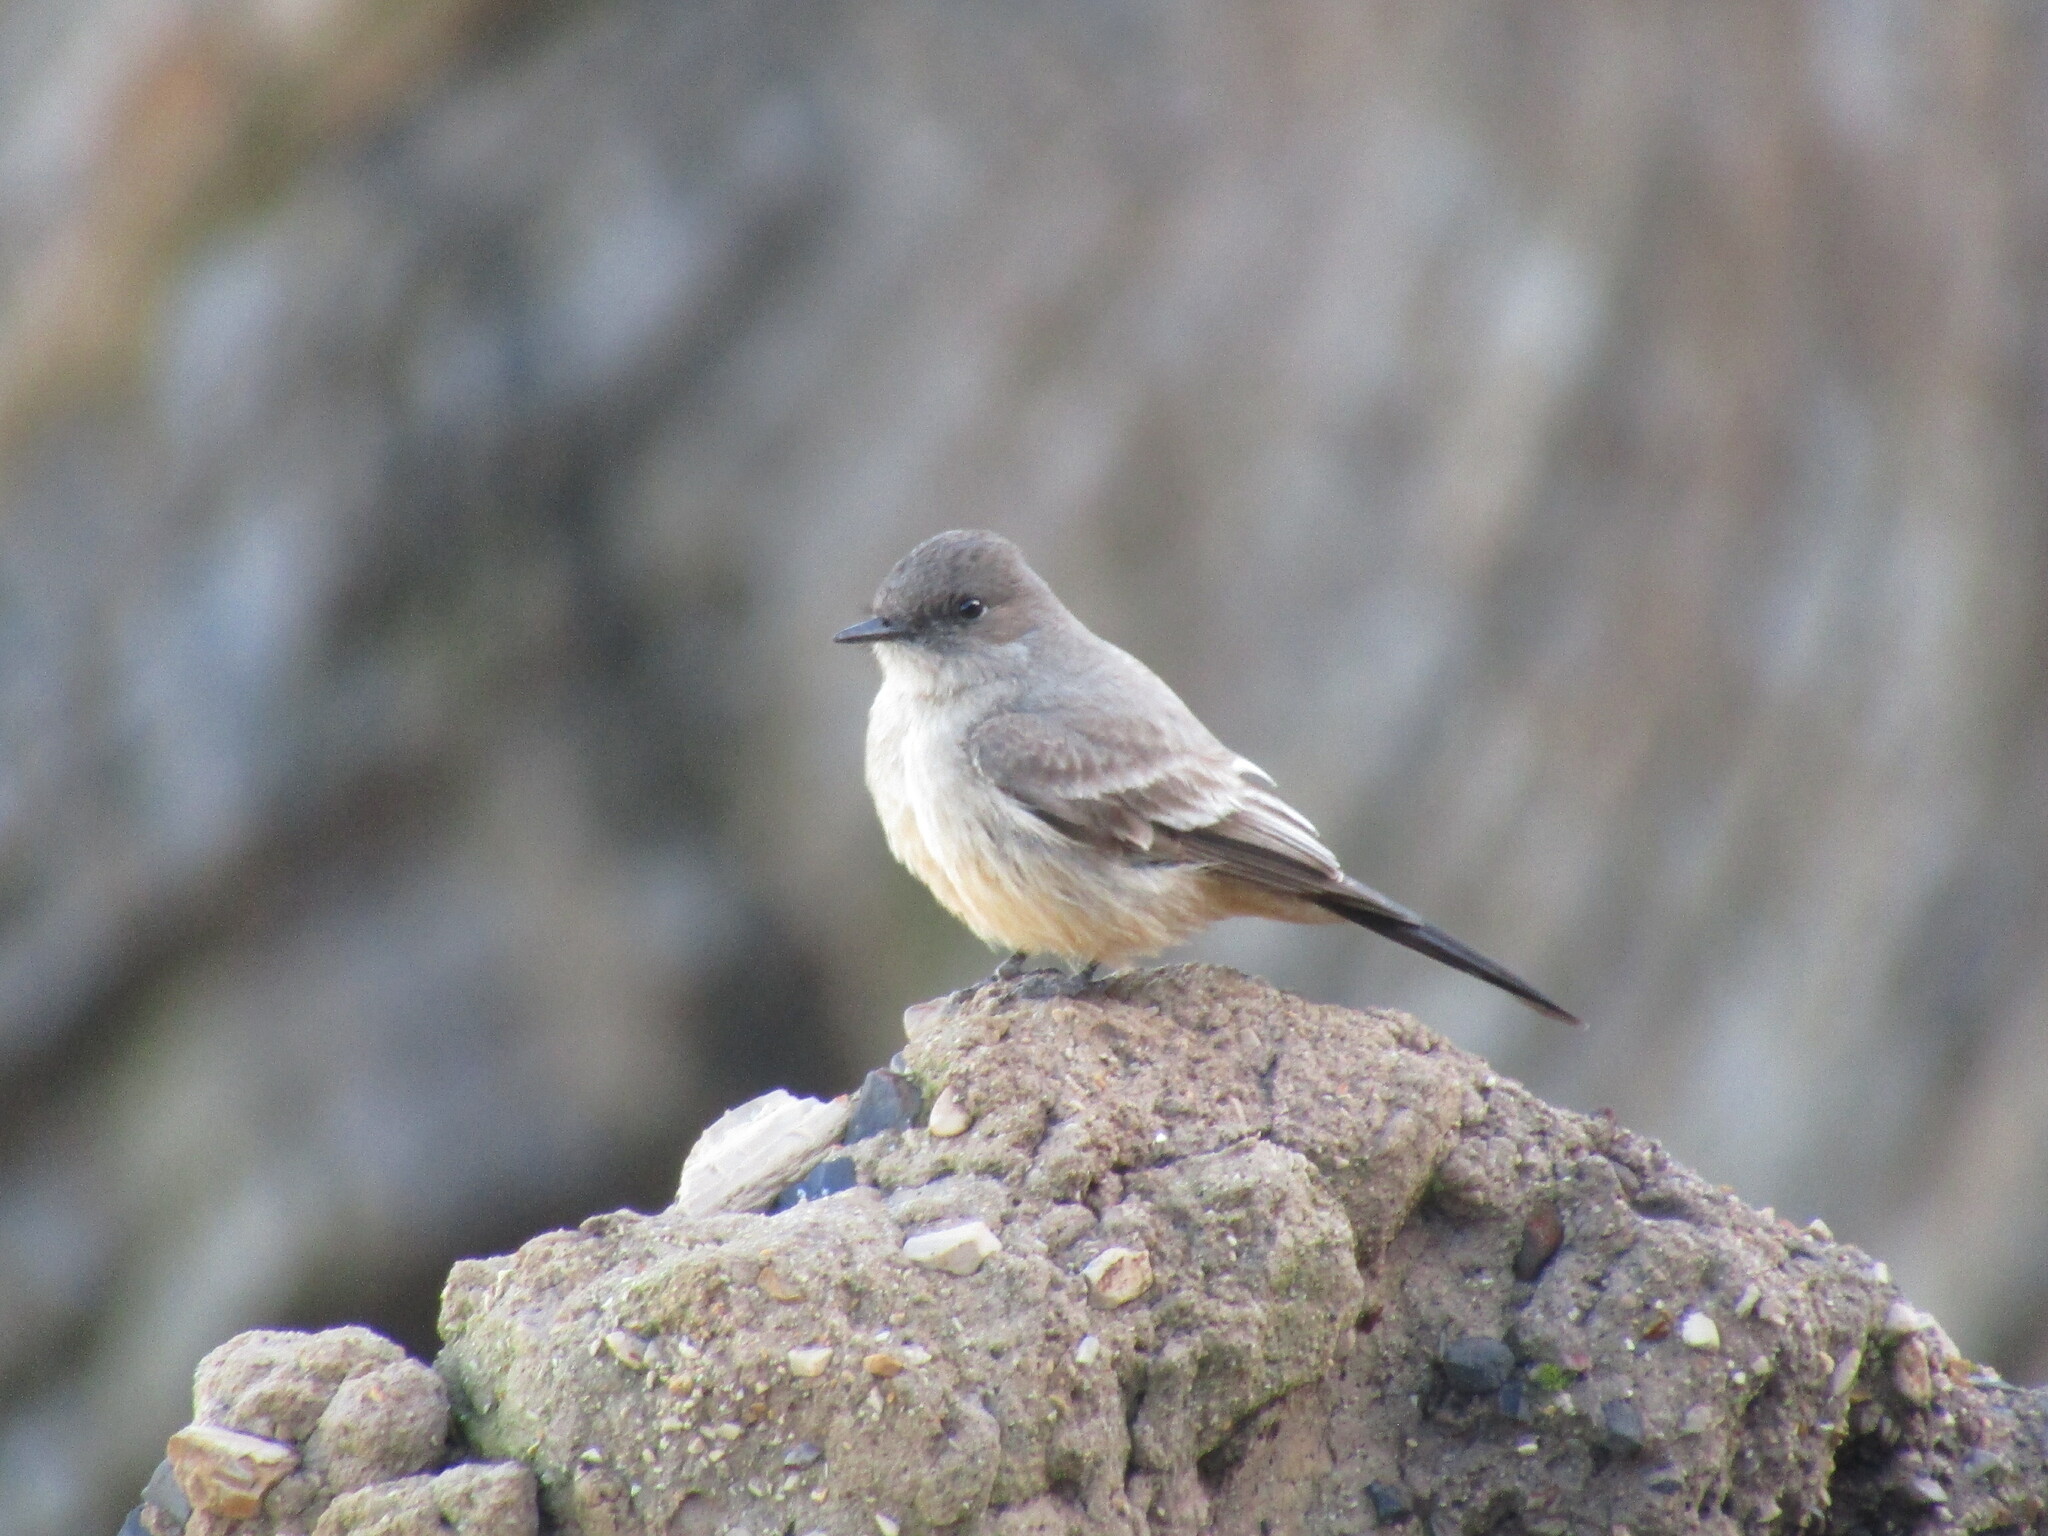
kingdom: Animalia
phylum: Chordata
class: Aves
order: Passeriformes
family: Tyrannidae
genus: Sayornis
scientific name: Sayornis saya
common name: Say's phoebe
